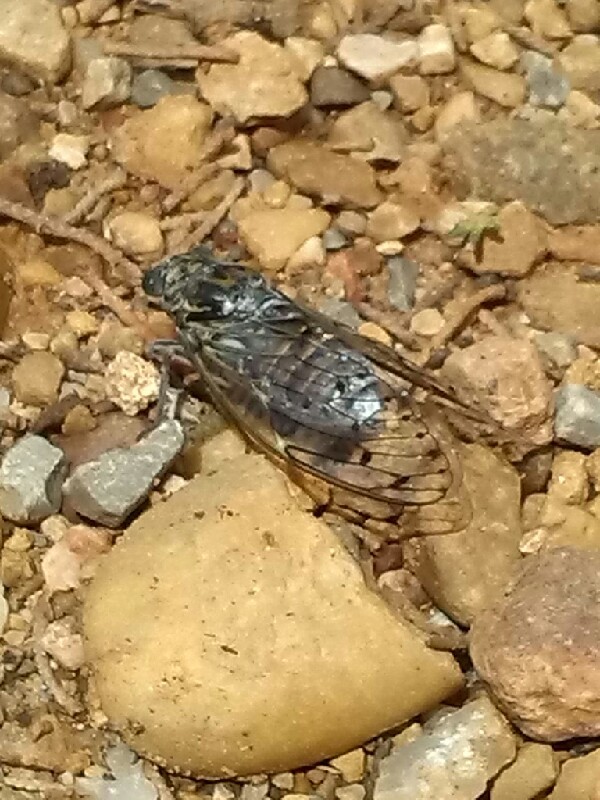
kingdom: Animalia
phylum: Arthropoda
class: Insecta
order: Hemiptera
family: Cicadidae
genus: Cicada
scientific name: Cicada orni
